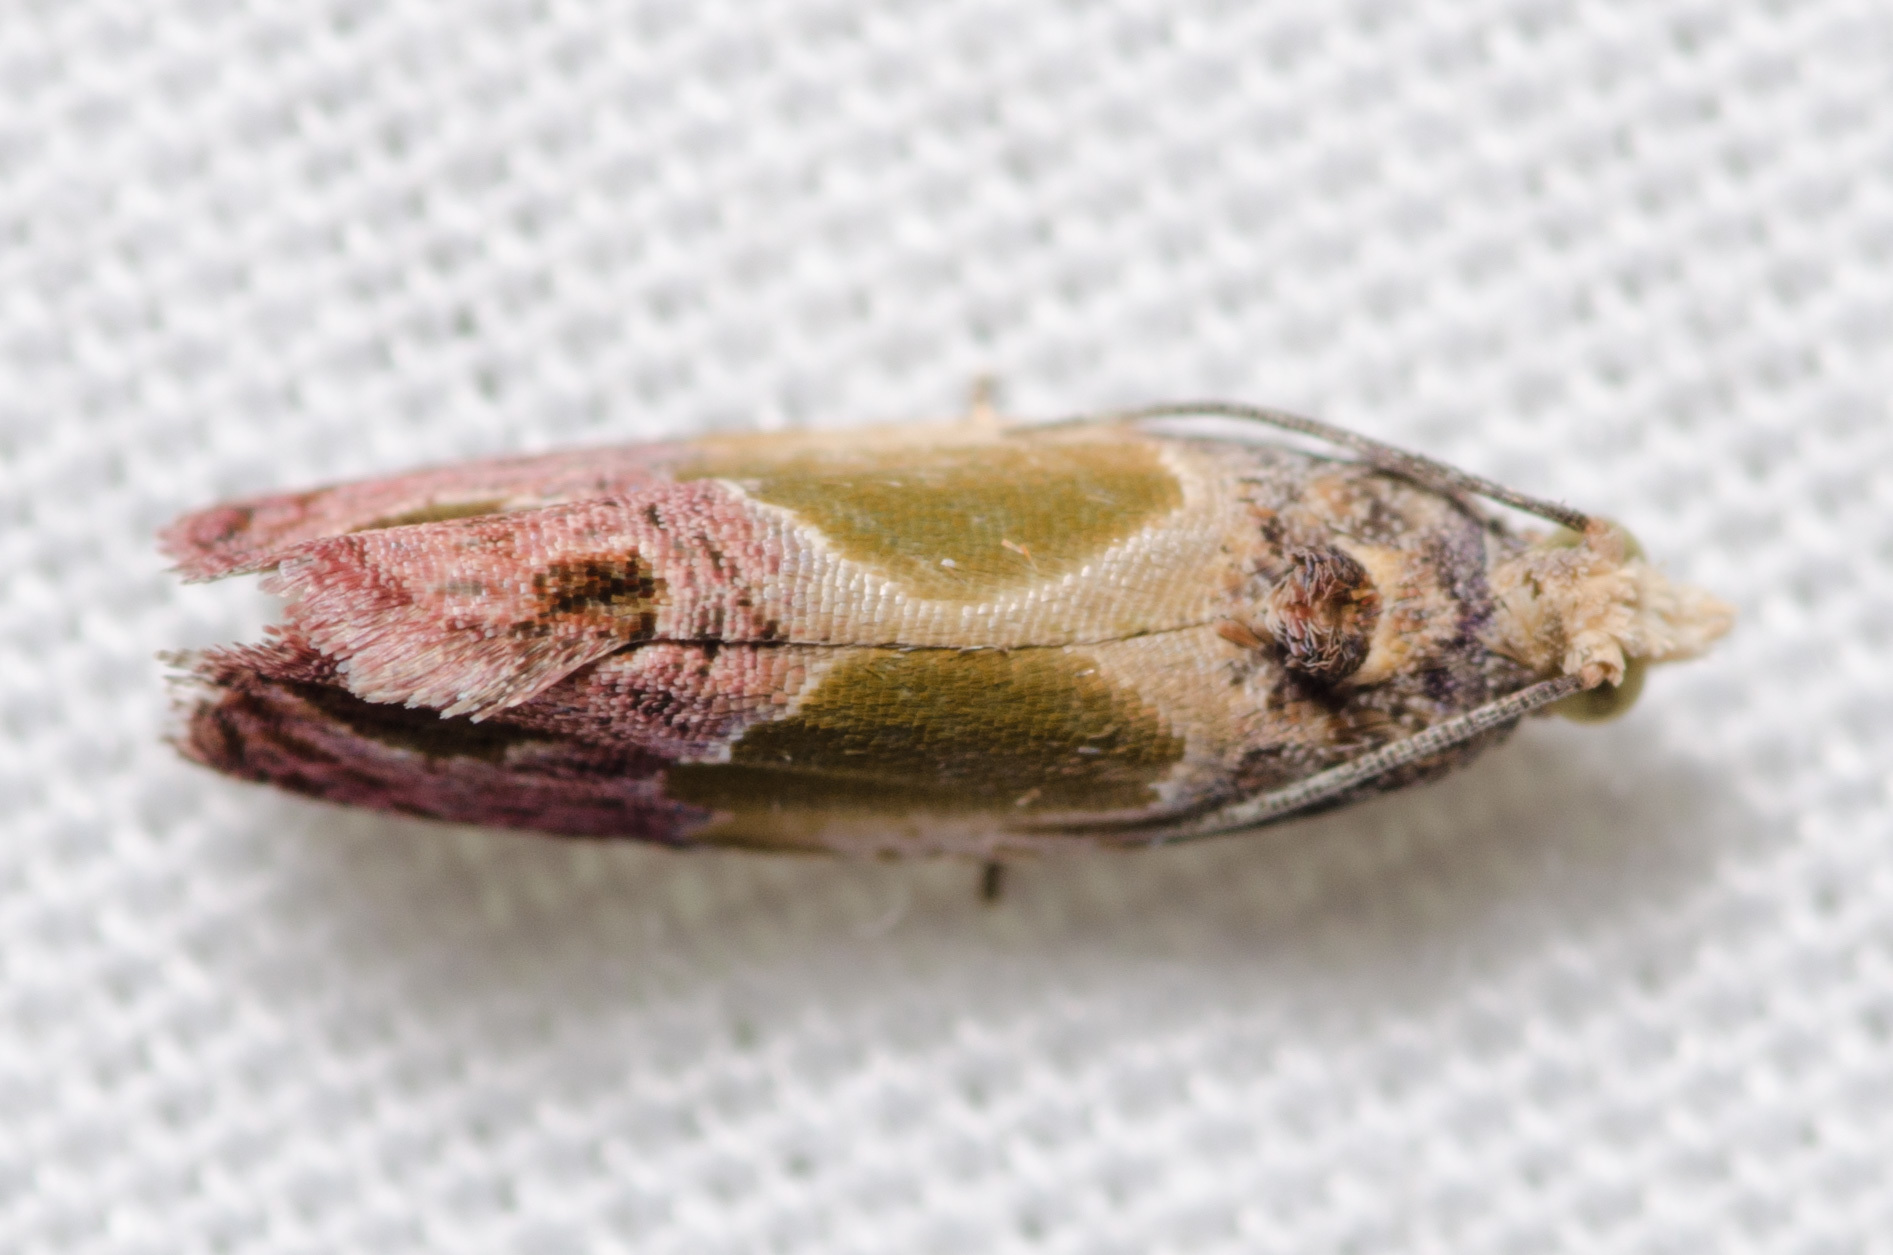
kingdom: Animalia
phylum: Arthropoda
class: Insecta
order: Lepidoptera
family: Tortricidae
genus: Eumarozia
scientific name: Eumarozia malachitana
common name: Sculptured moth
